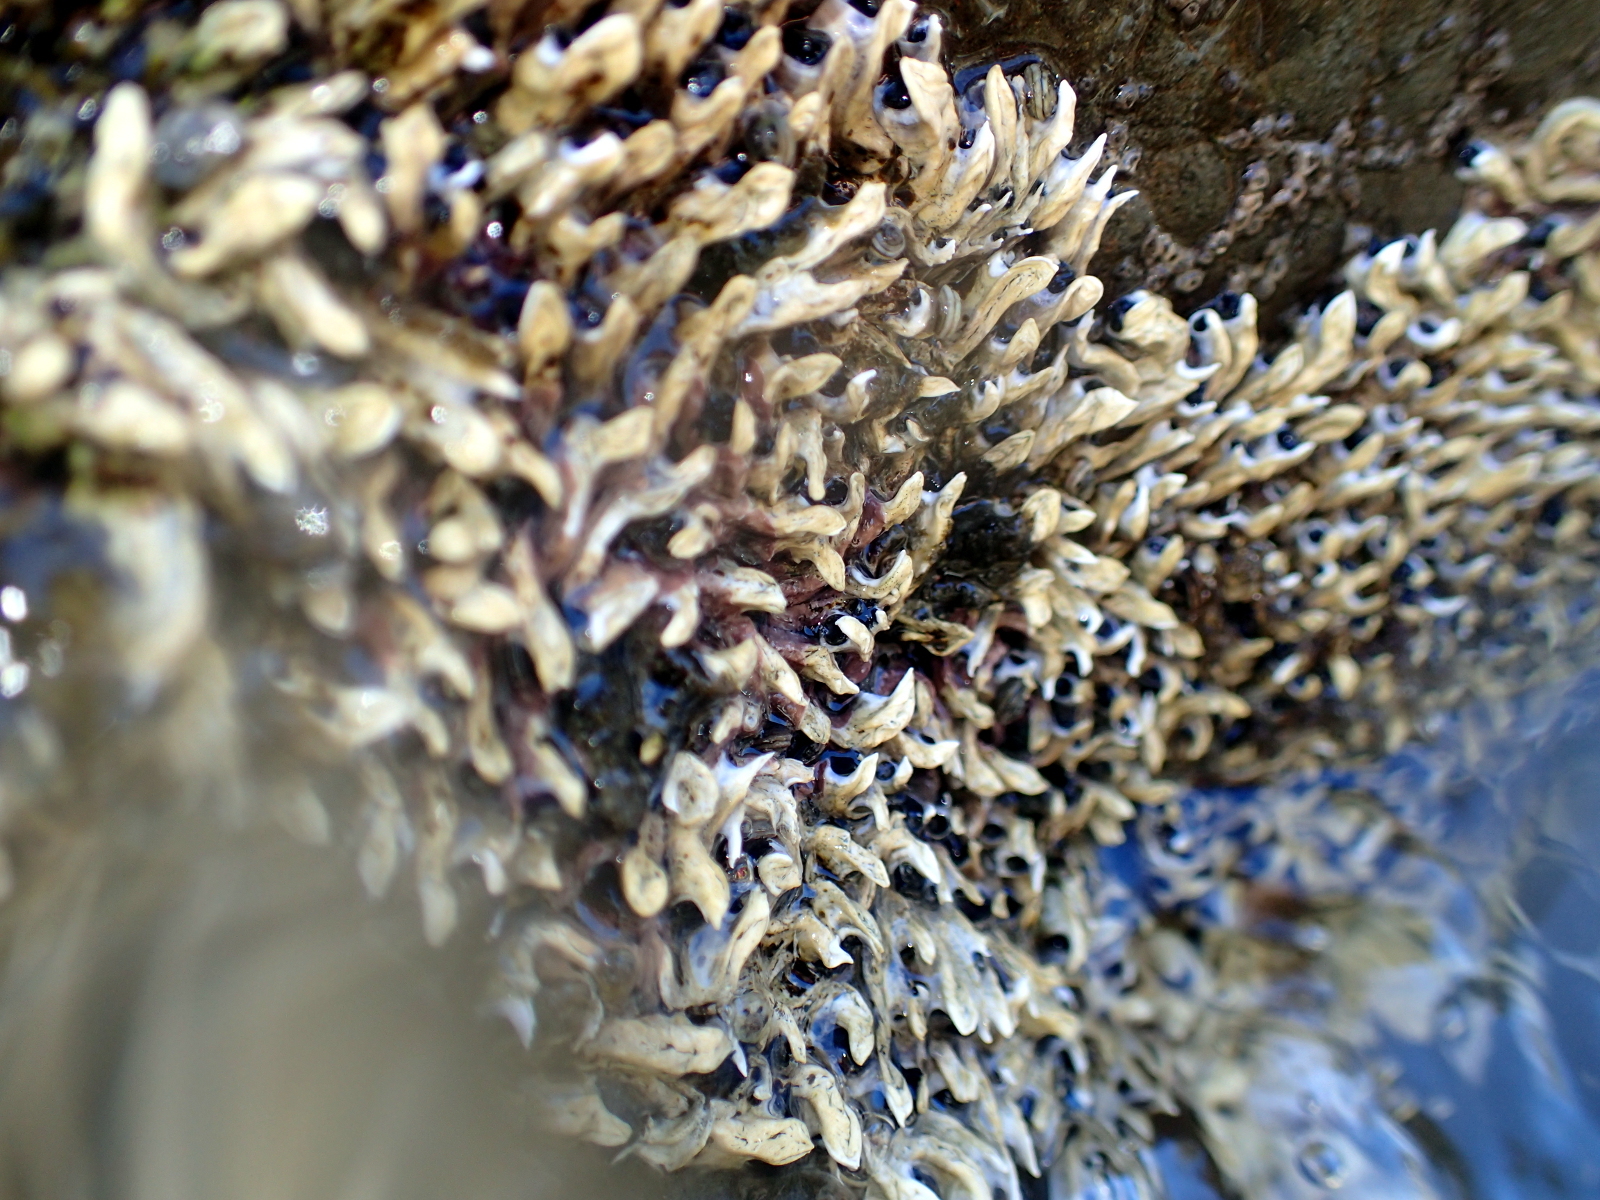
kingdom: Animalia
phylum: Annelida
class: Polychaeta
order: Sabellida
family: Serpulidae
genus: Spirobranchus
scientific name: Spirobranchus cariniferus
